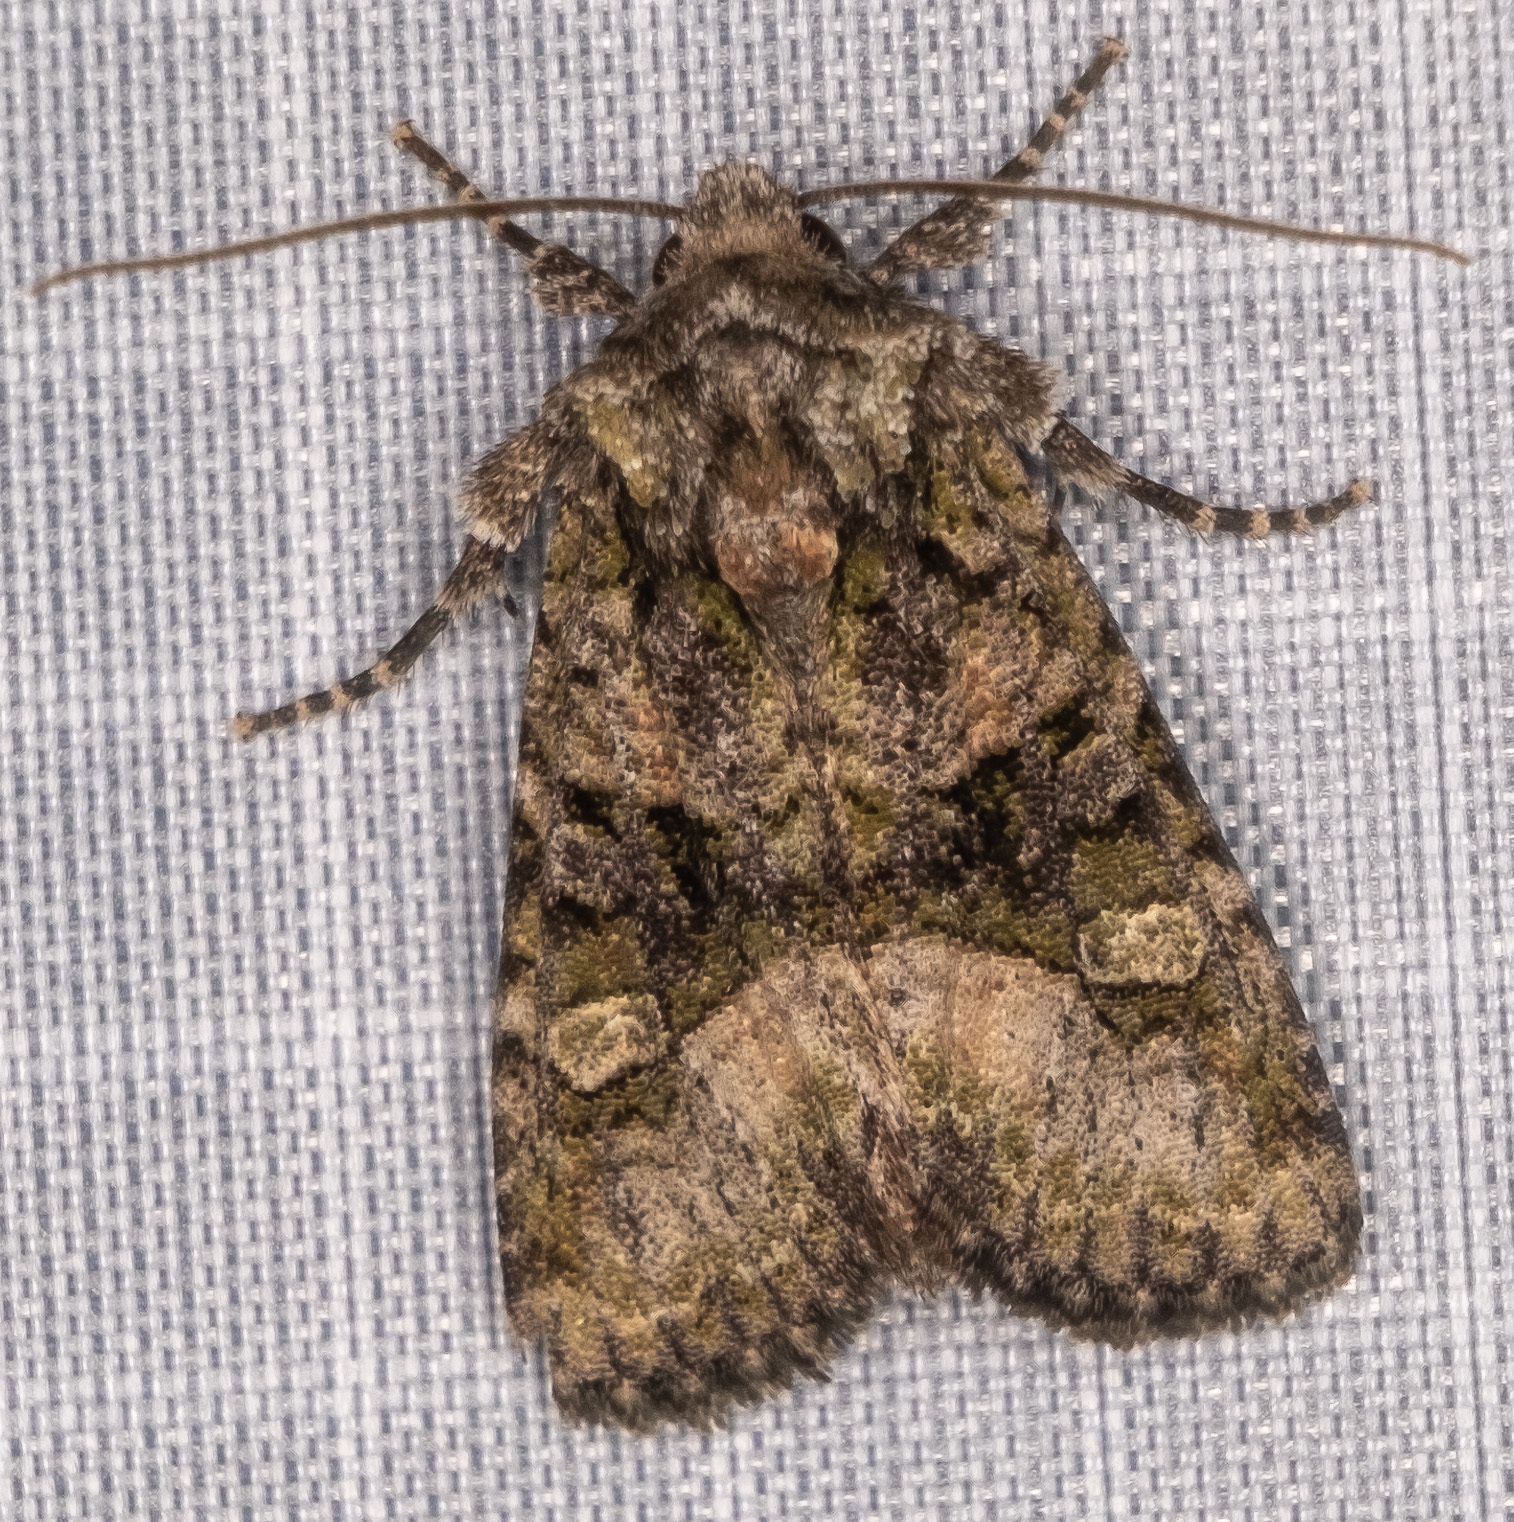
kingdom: Animalia
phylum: Arthropoda
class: Insecta
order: Lepidoptera
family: Noctuidae
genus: Lacinipolia
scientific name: Lacinipolia olivacea
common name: Olive arches moth
